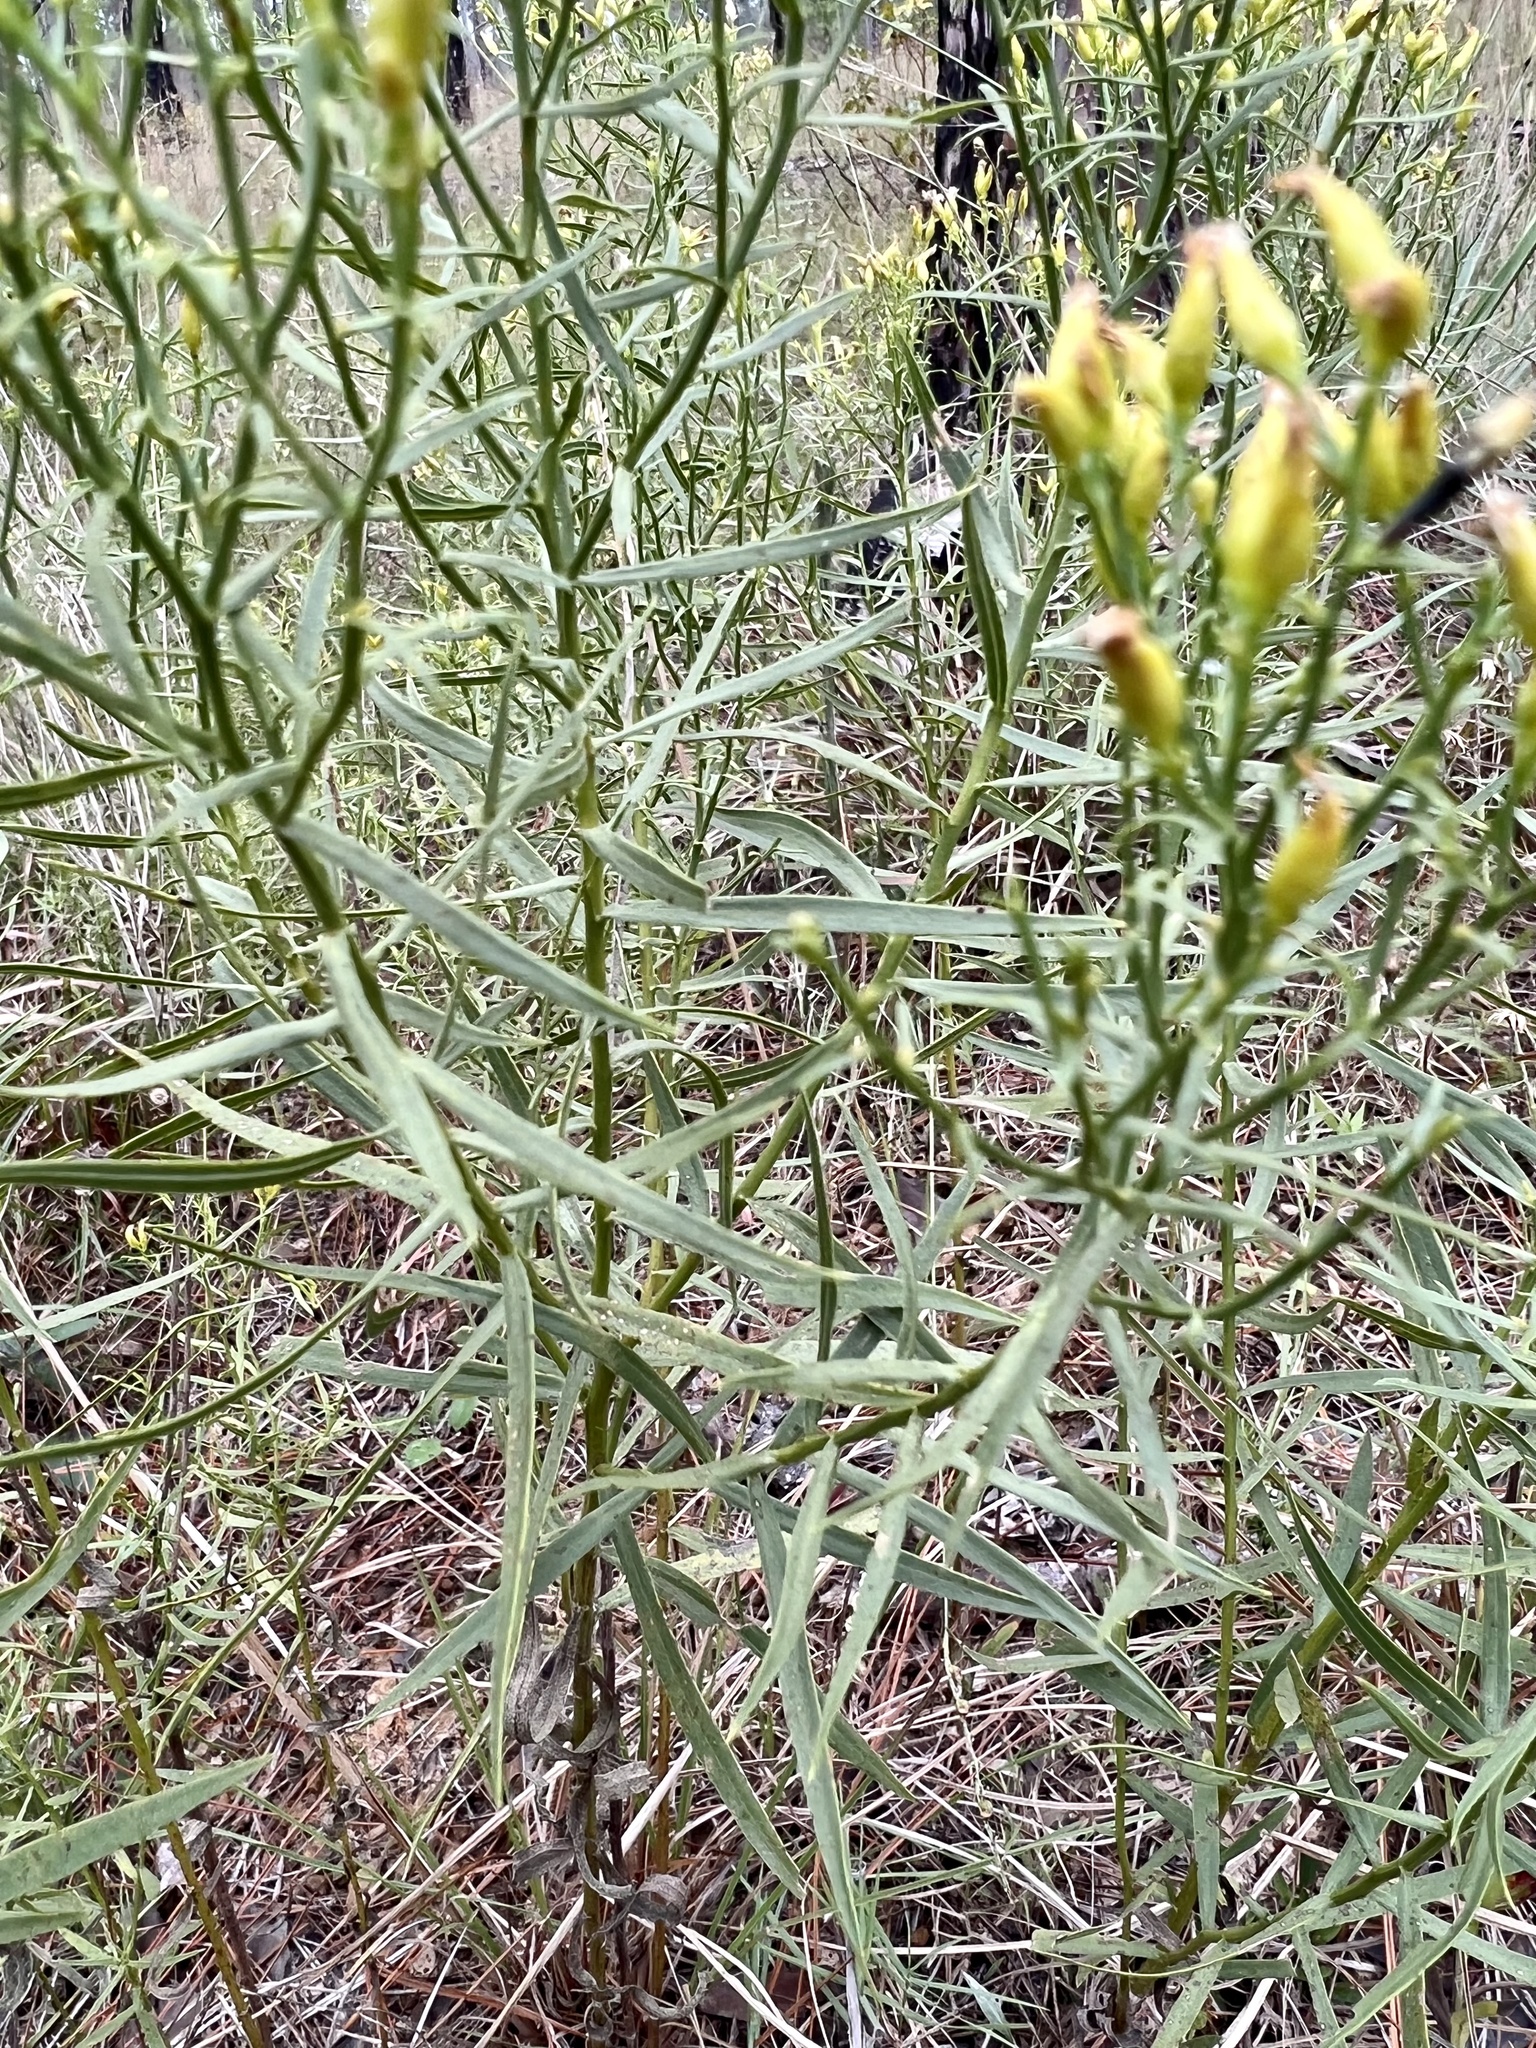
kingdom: Plantae
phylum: Tracheophyta
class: Magnoliopsida
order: Asterales
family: Asteraceae
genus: Euthamia
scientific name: Euthamia leptocephala
